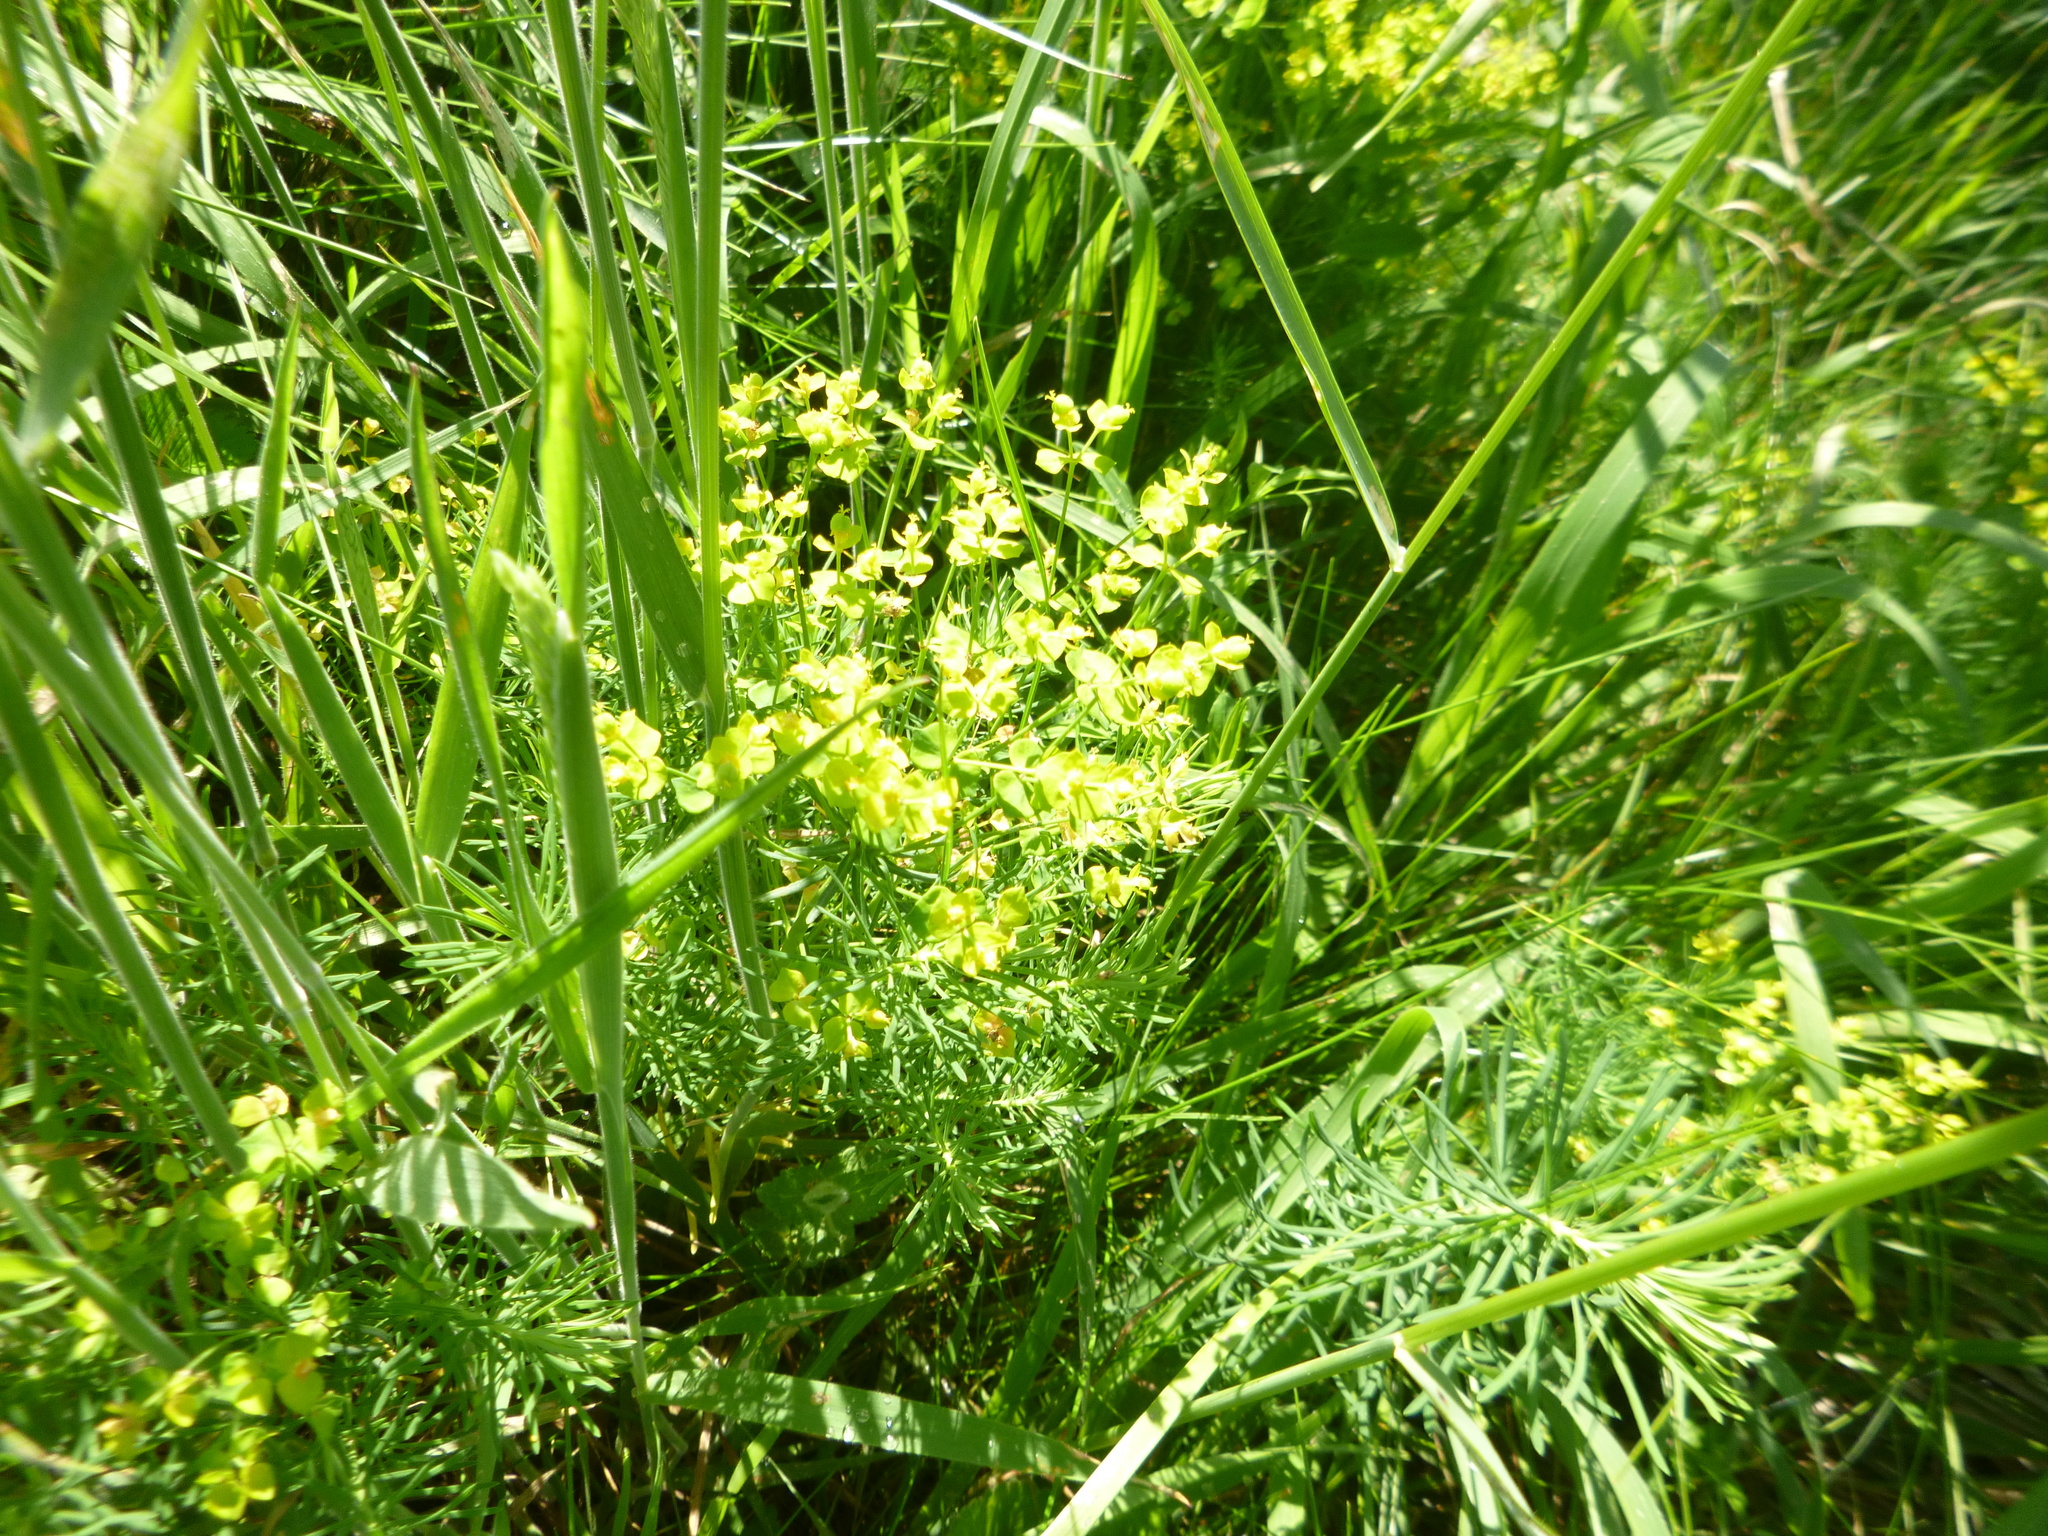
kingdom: Plantae
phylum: Tracheophyta
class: Magnoliopsida
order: Malpighiales
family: Euphorbiaceae
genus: Euphorbia
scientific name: Euphorbia cyparissias
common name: Cypress spurge
